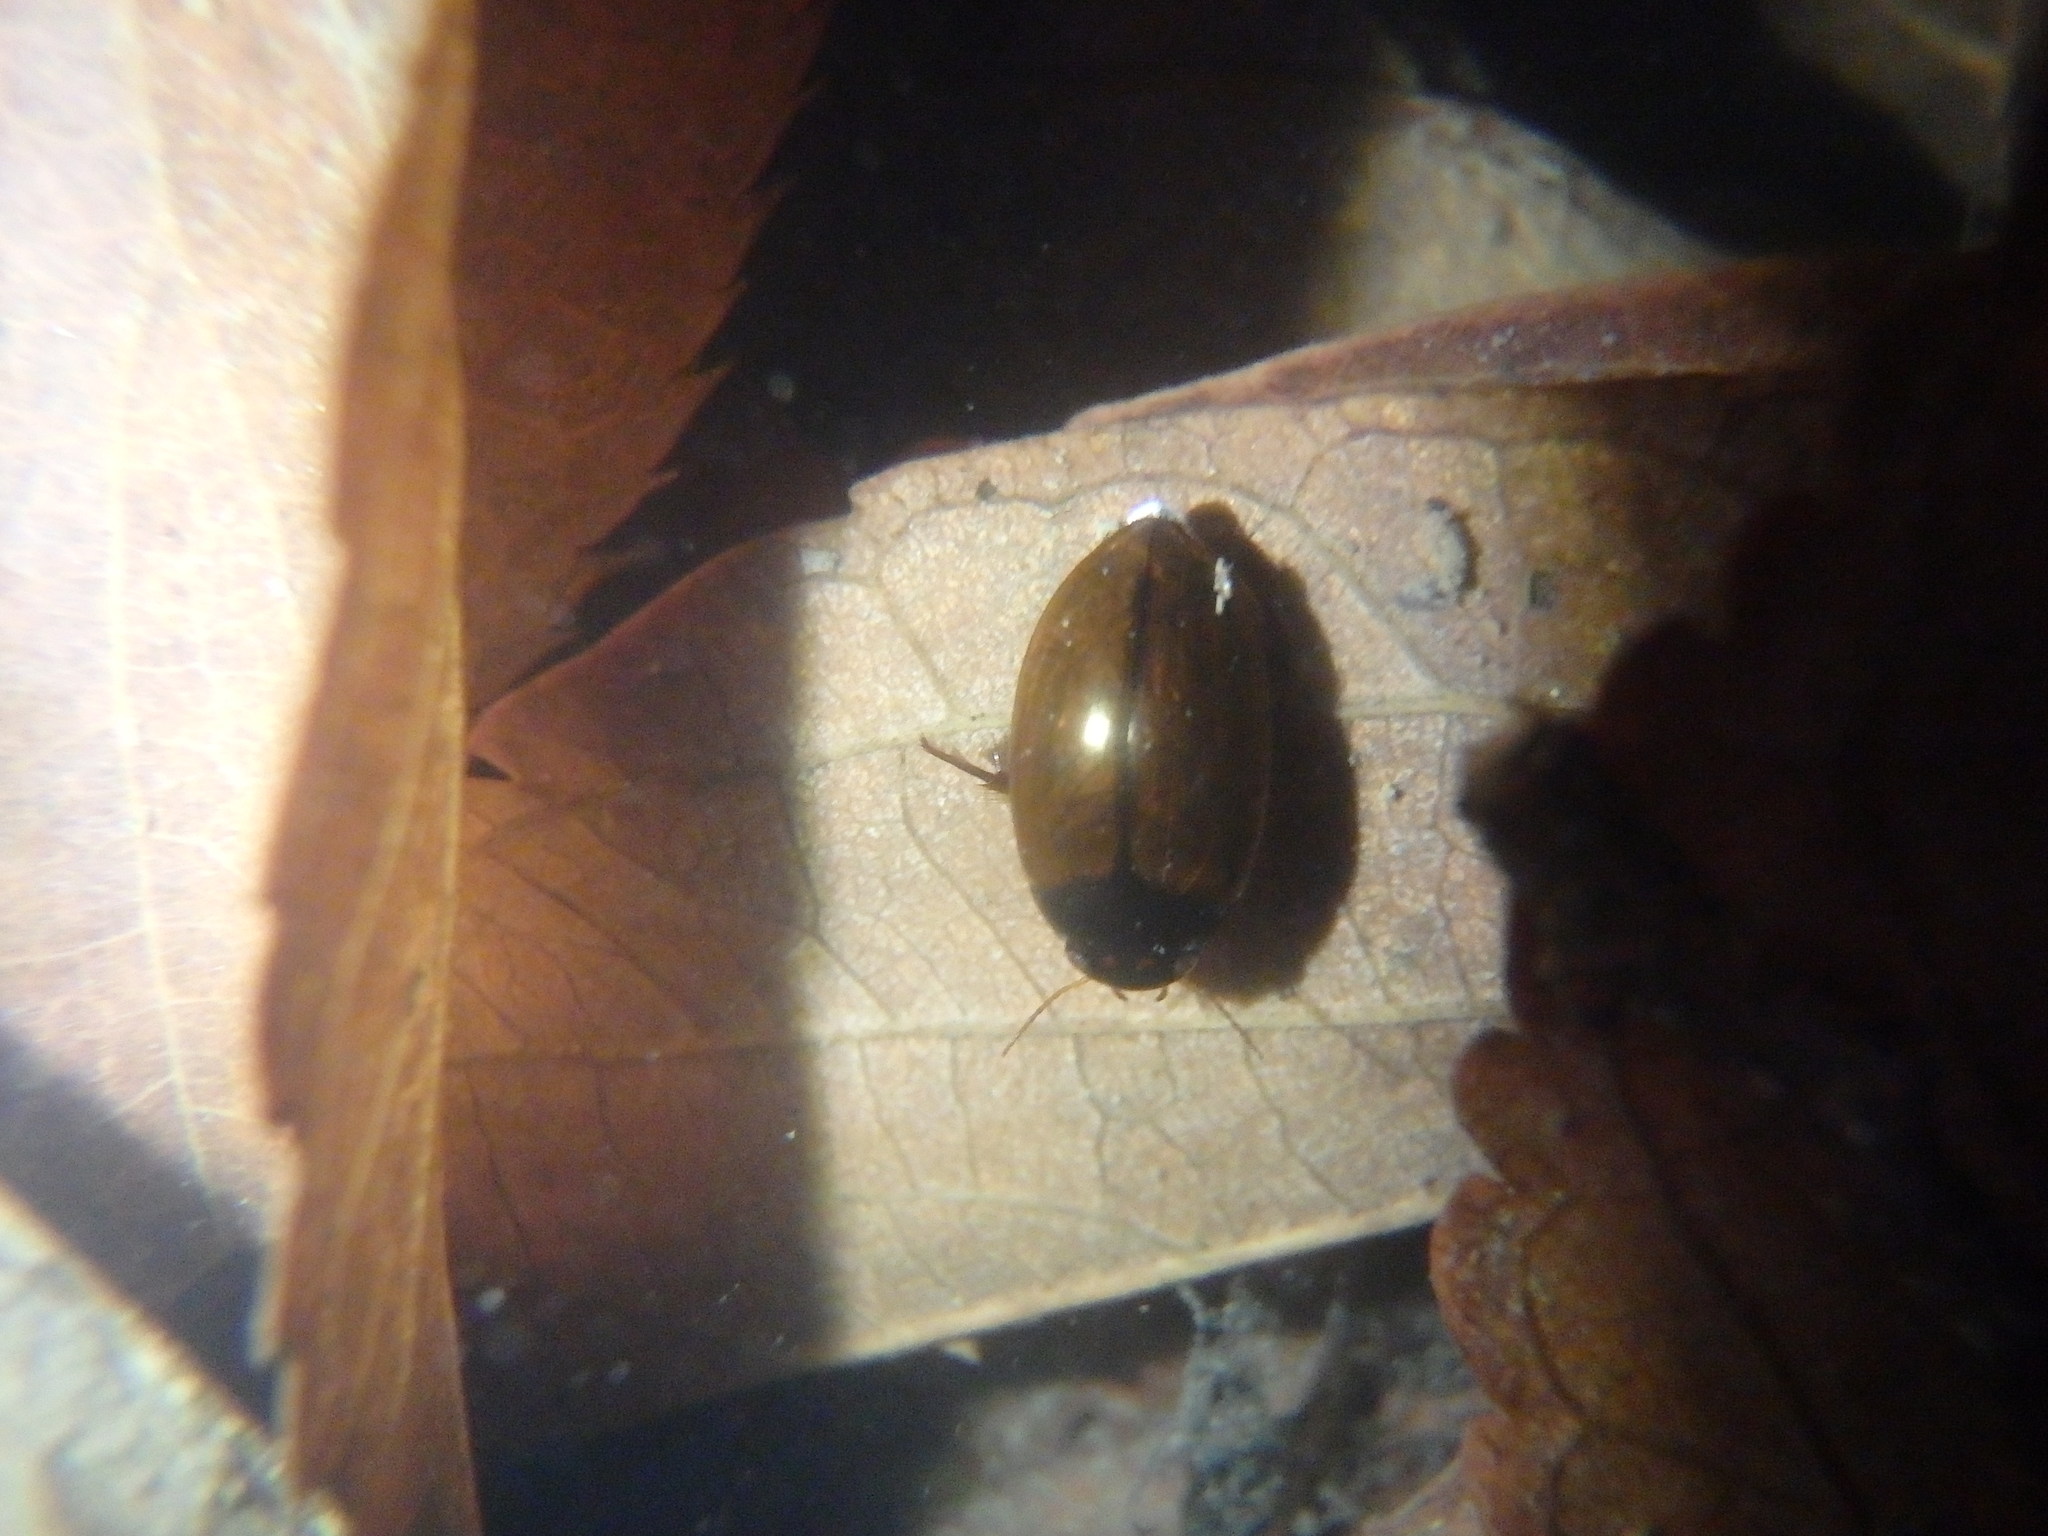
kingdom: Animalia
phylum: Arthropoda
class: Insecta
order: Coleoptera
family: Dytiscidae
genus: Agabus
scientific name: Agabus japonicus
